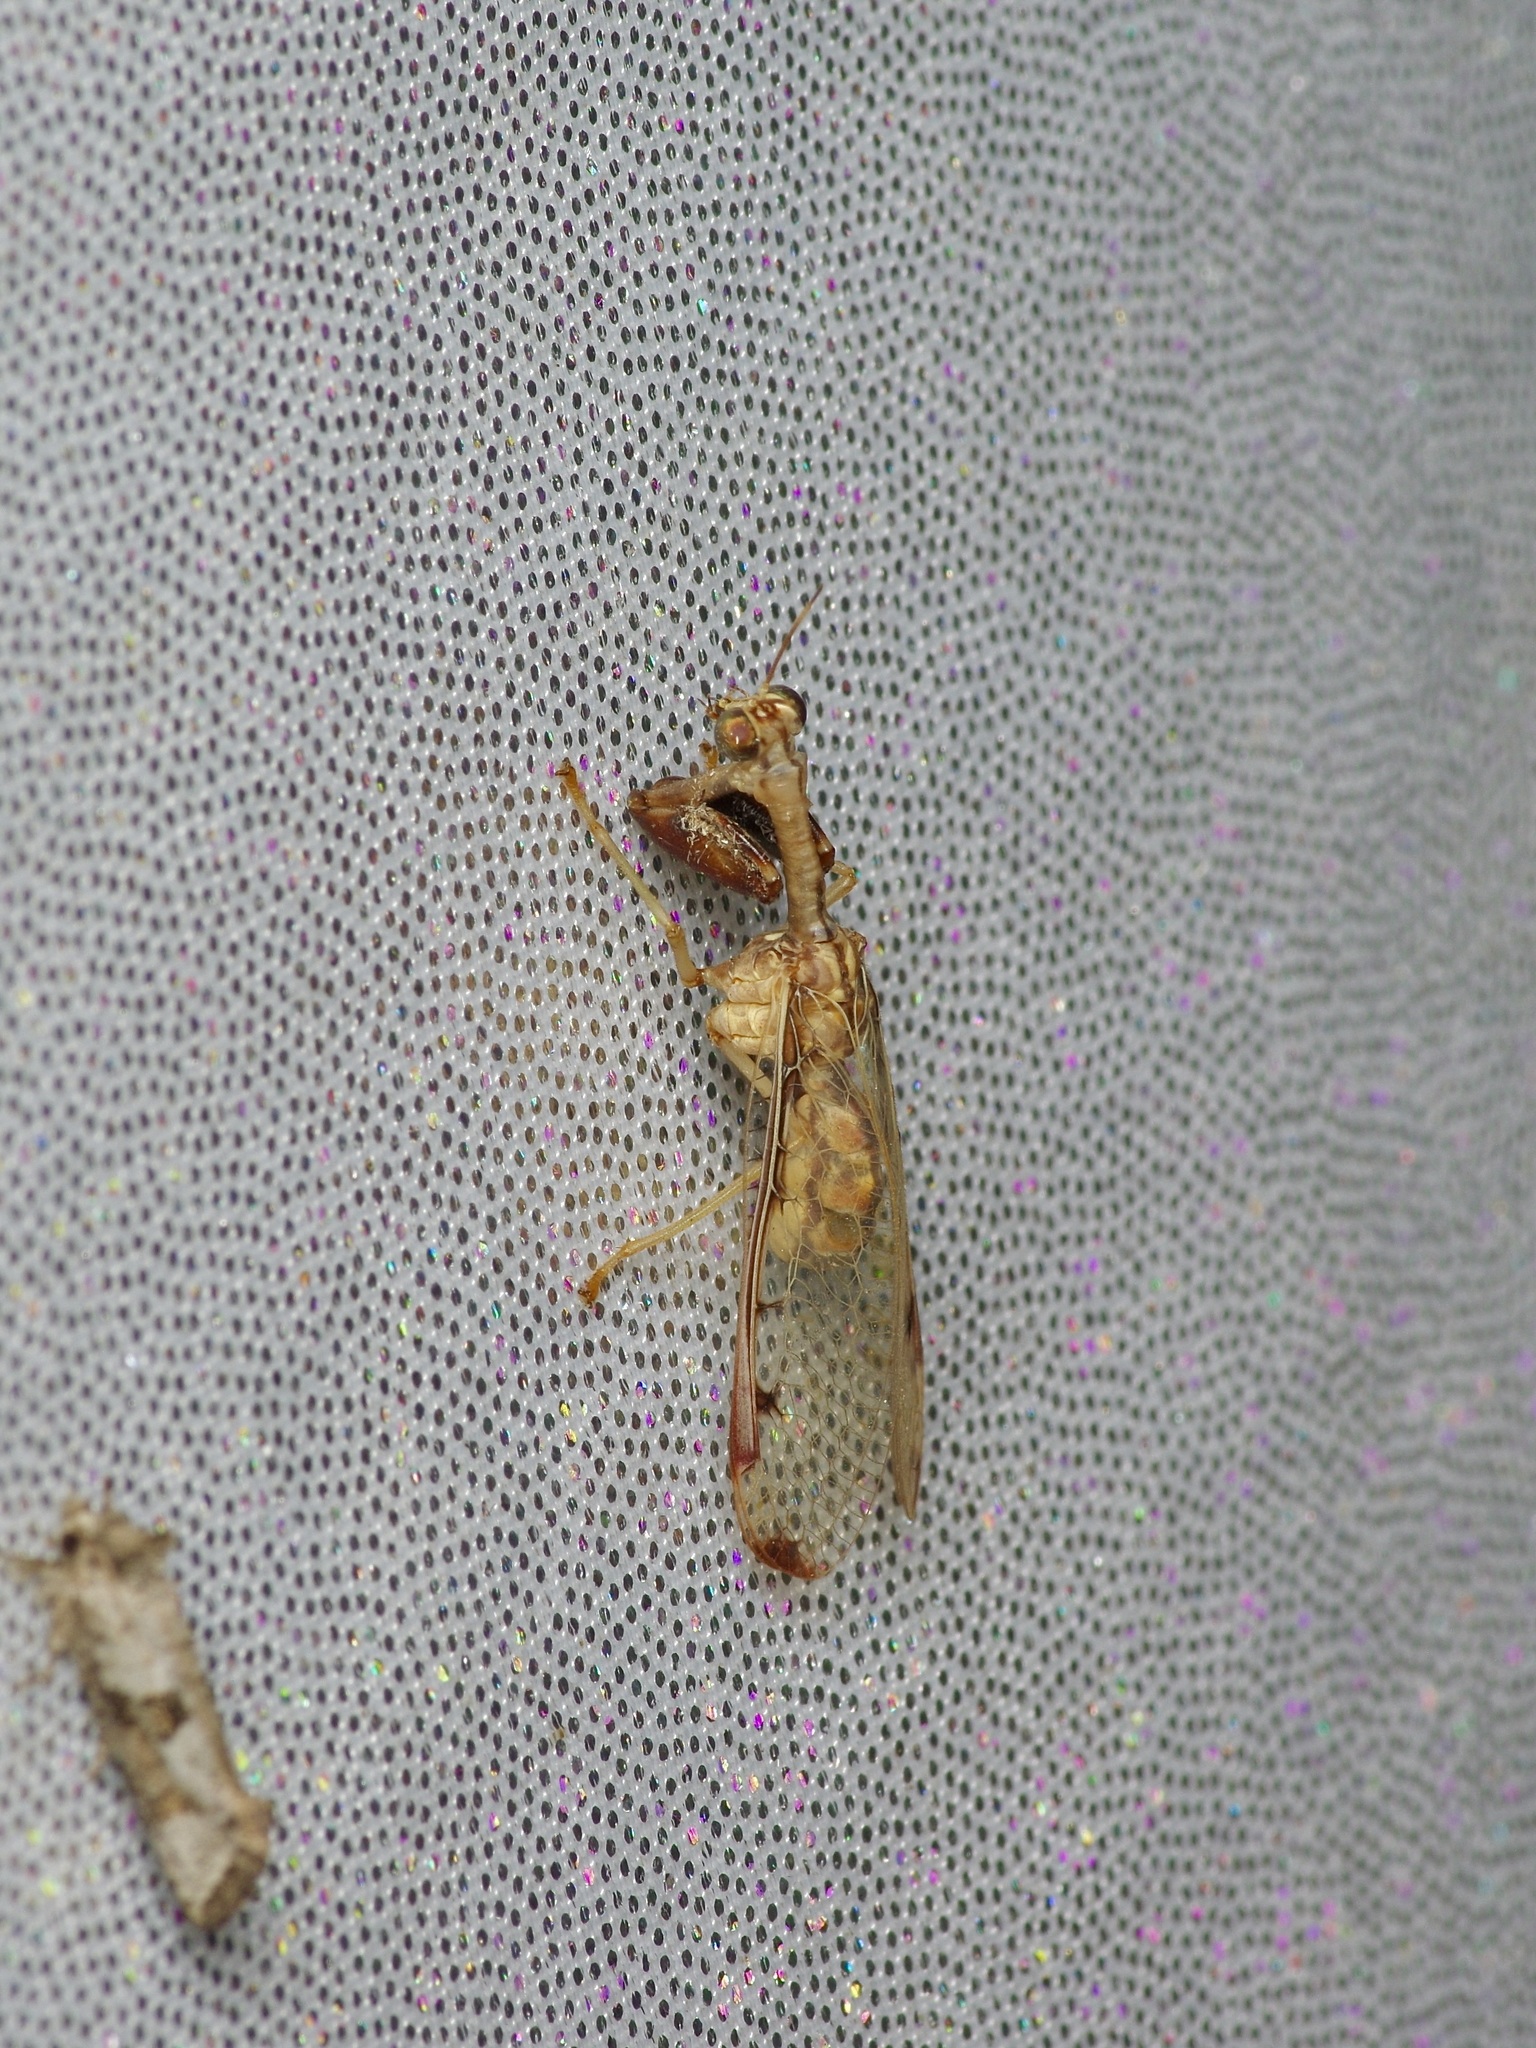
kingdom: Animalia
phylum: Arthropoda
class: Insecta
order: Neuroptera
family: Mantispidae
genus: Dicromantispa
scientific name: Dicromantispa interrupta
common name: Four-spotted mantidfly
